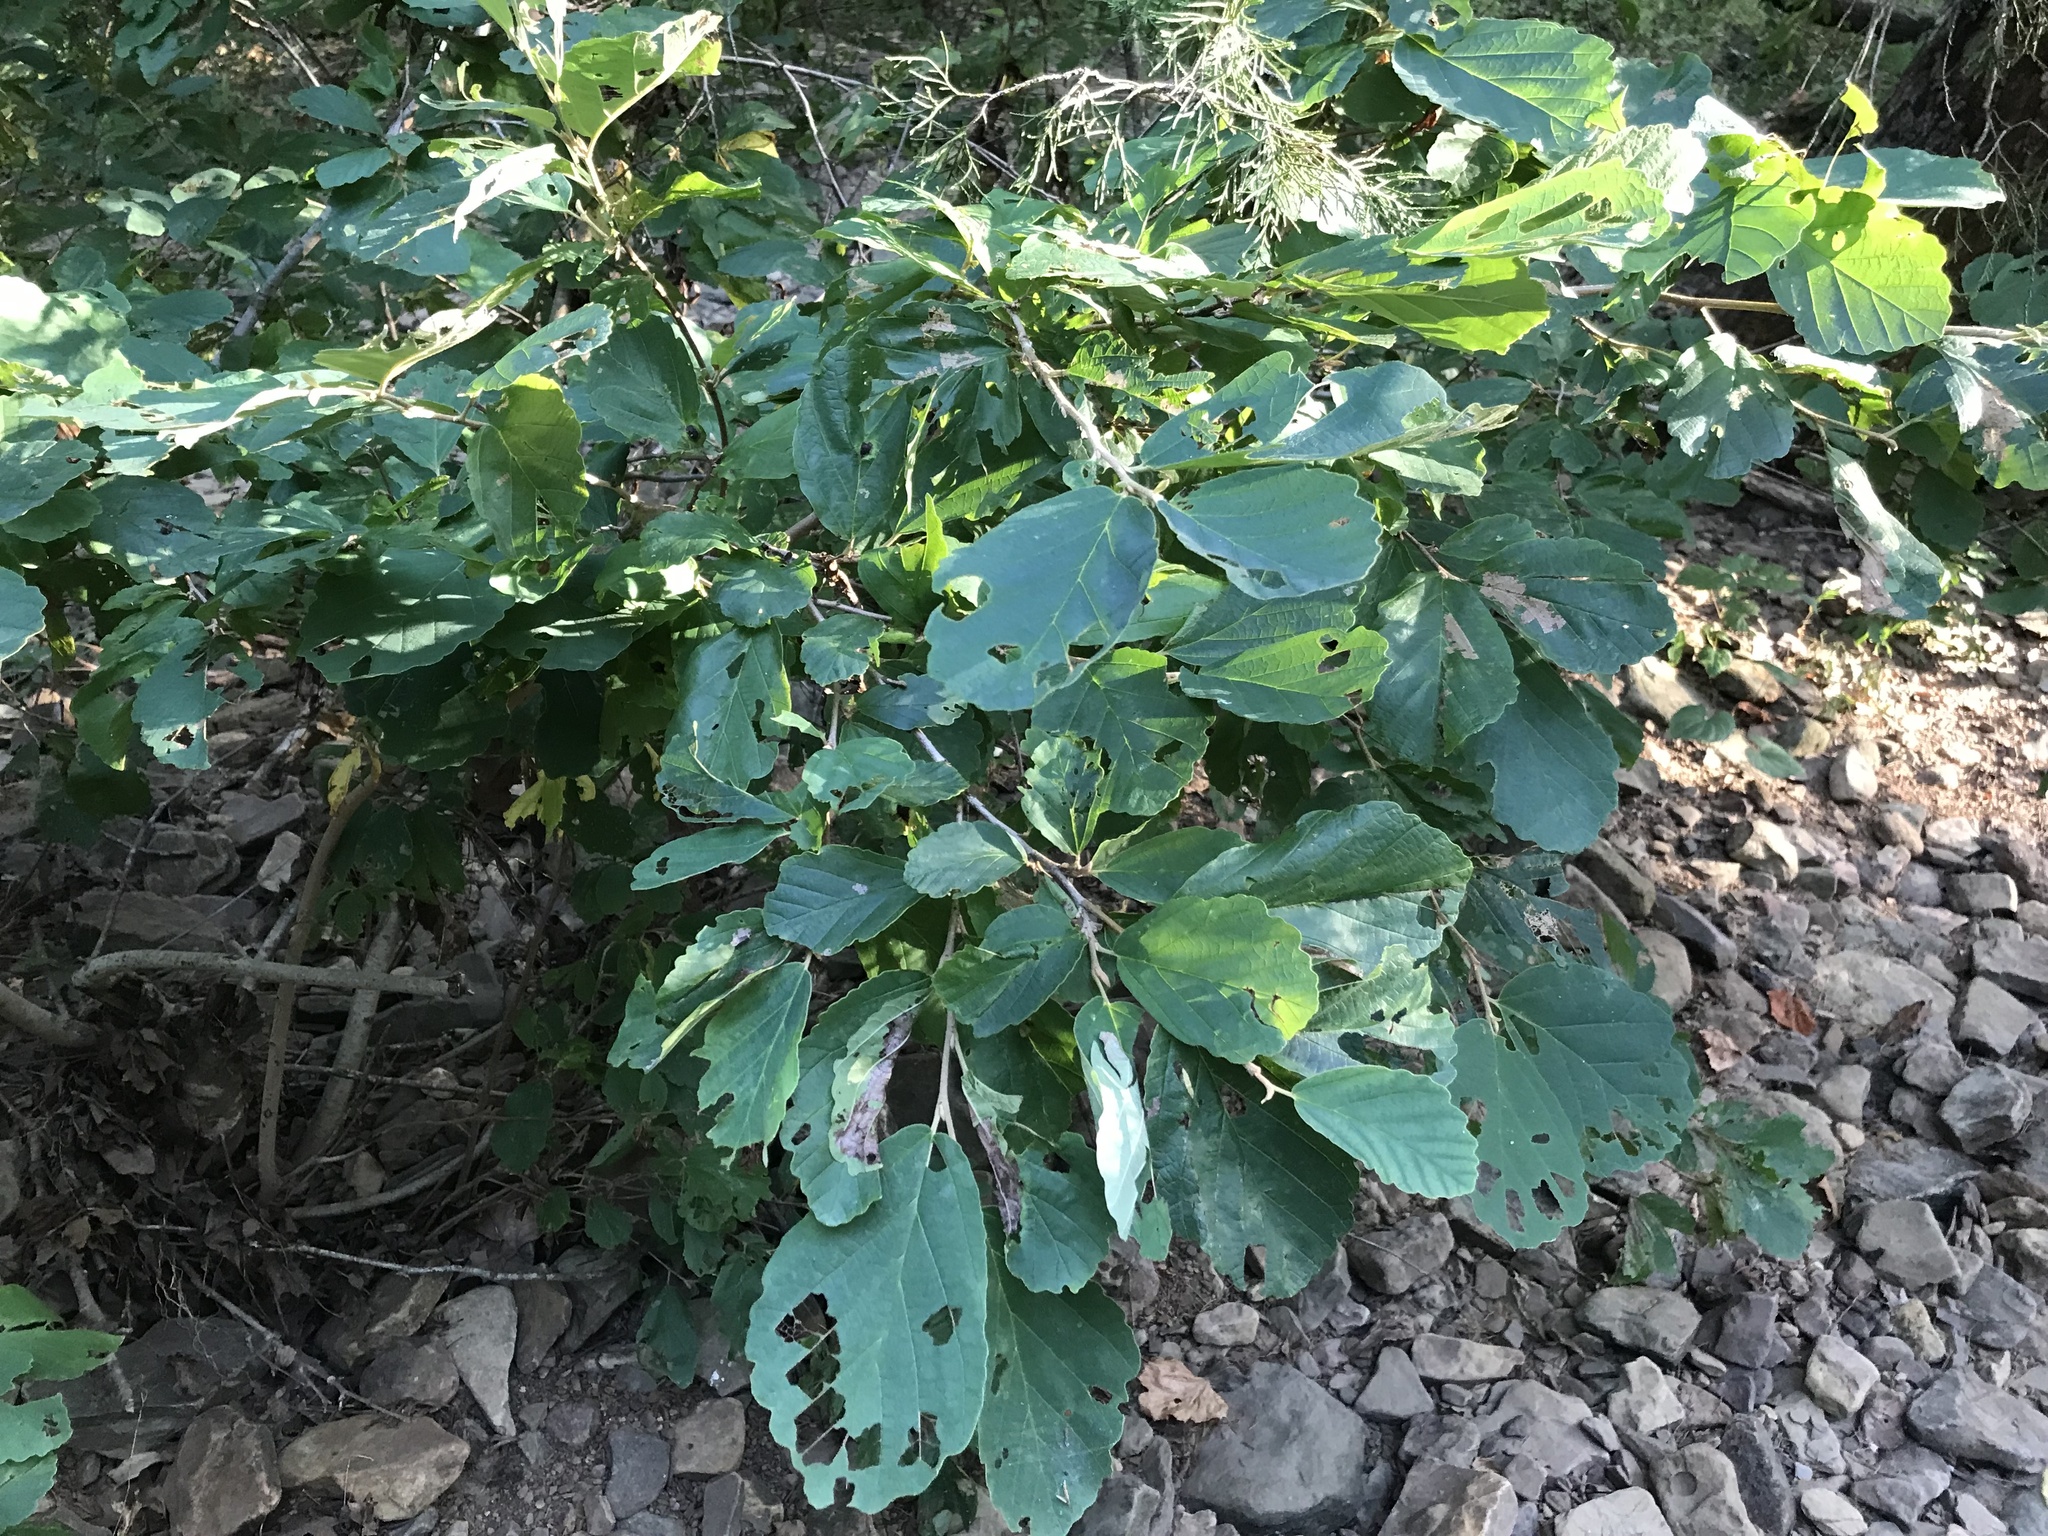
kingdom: Plantae
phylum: Tracheophyta
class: Magnoliopsida
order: Saxifragales
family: Hamamelidaceae
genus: Hamamelis
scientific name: Hamamelis vernalis
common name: Ozark witch-hazel
